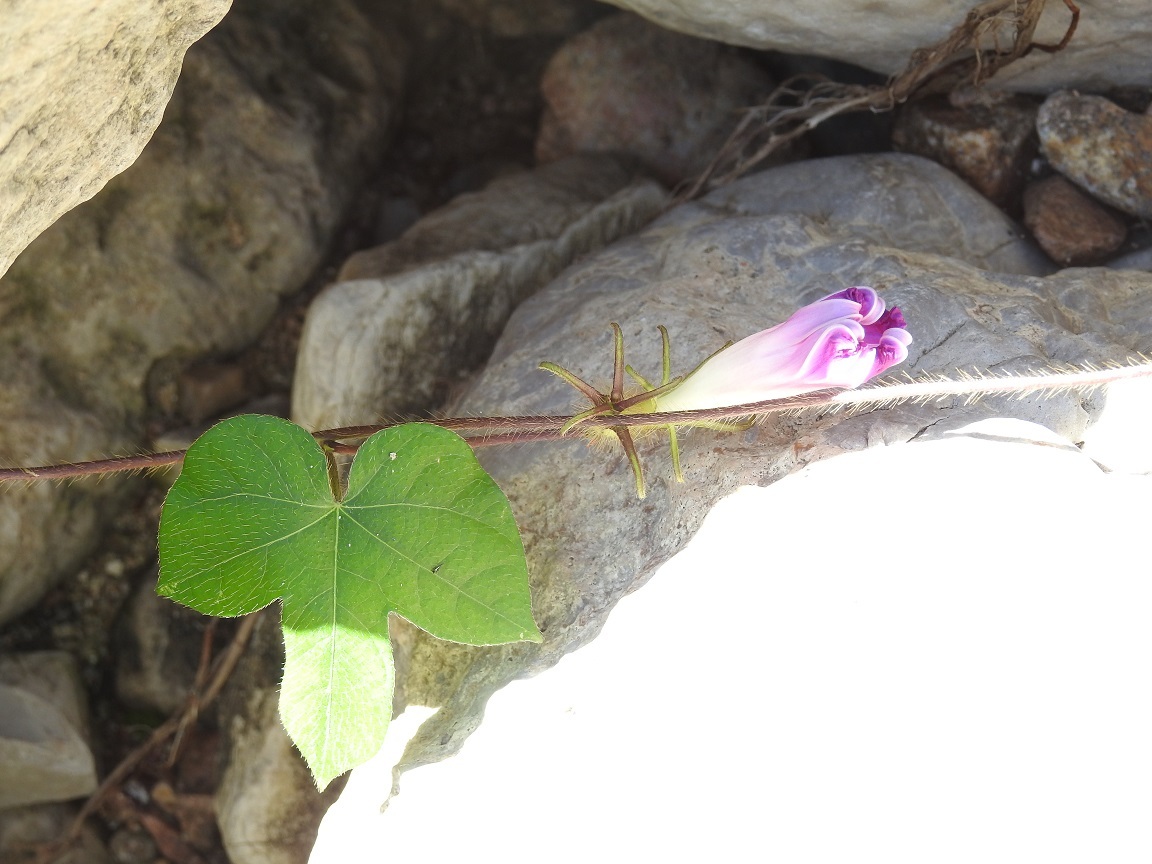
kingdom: Plantae
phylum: Tracheophyta
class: Magnoliopsida
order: Solanales
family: Convolvulaceae
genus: Ipomoea
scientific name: Ipomoea nil
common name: Japanese morning-glory
